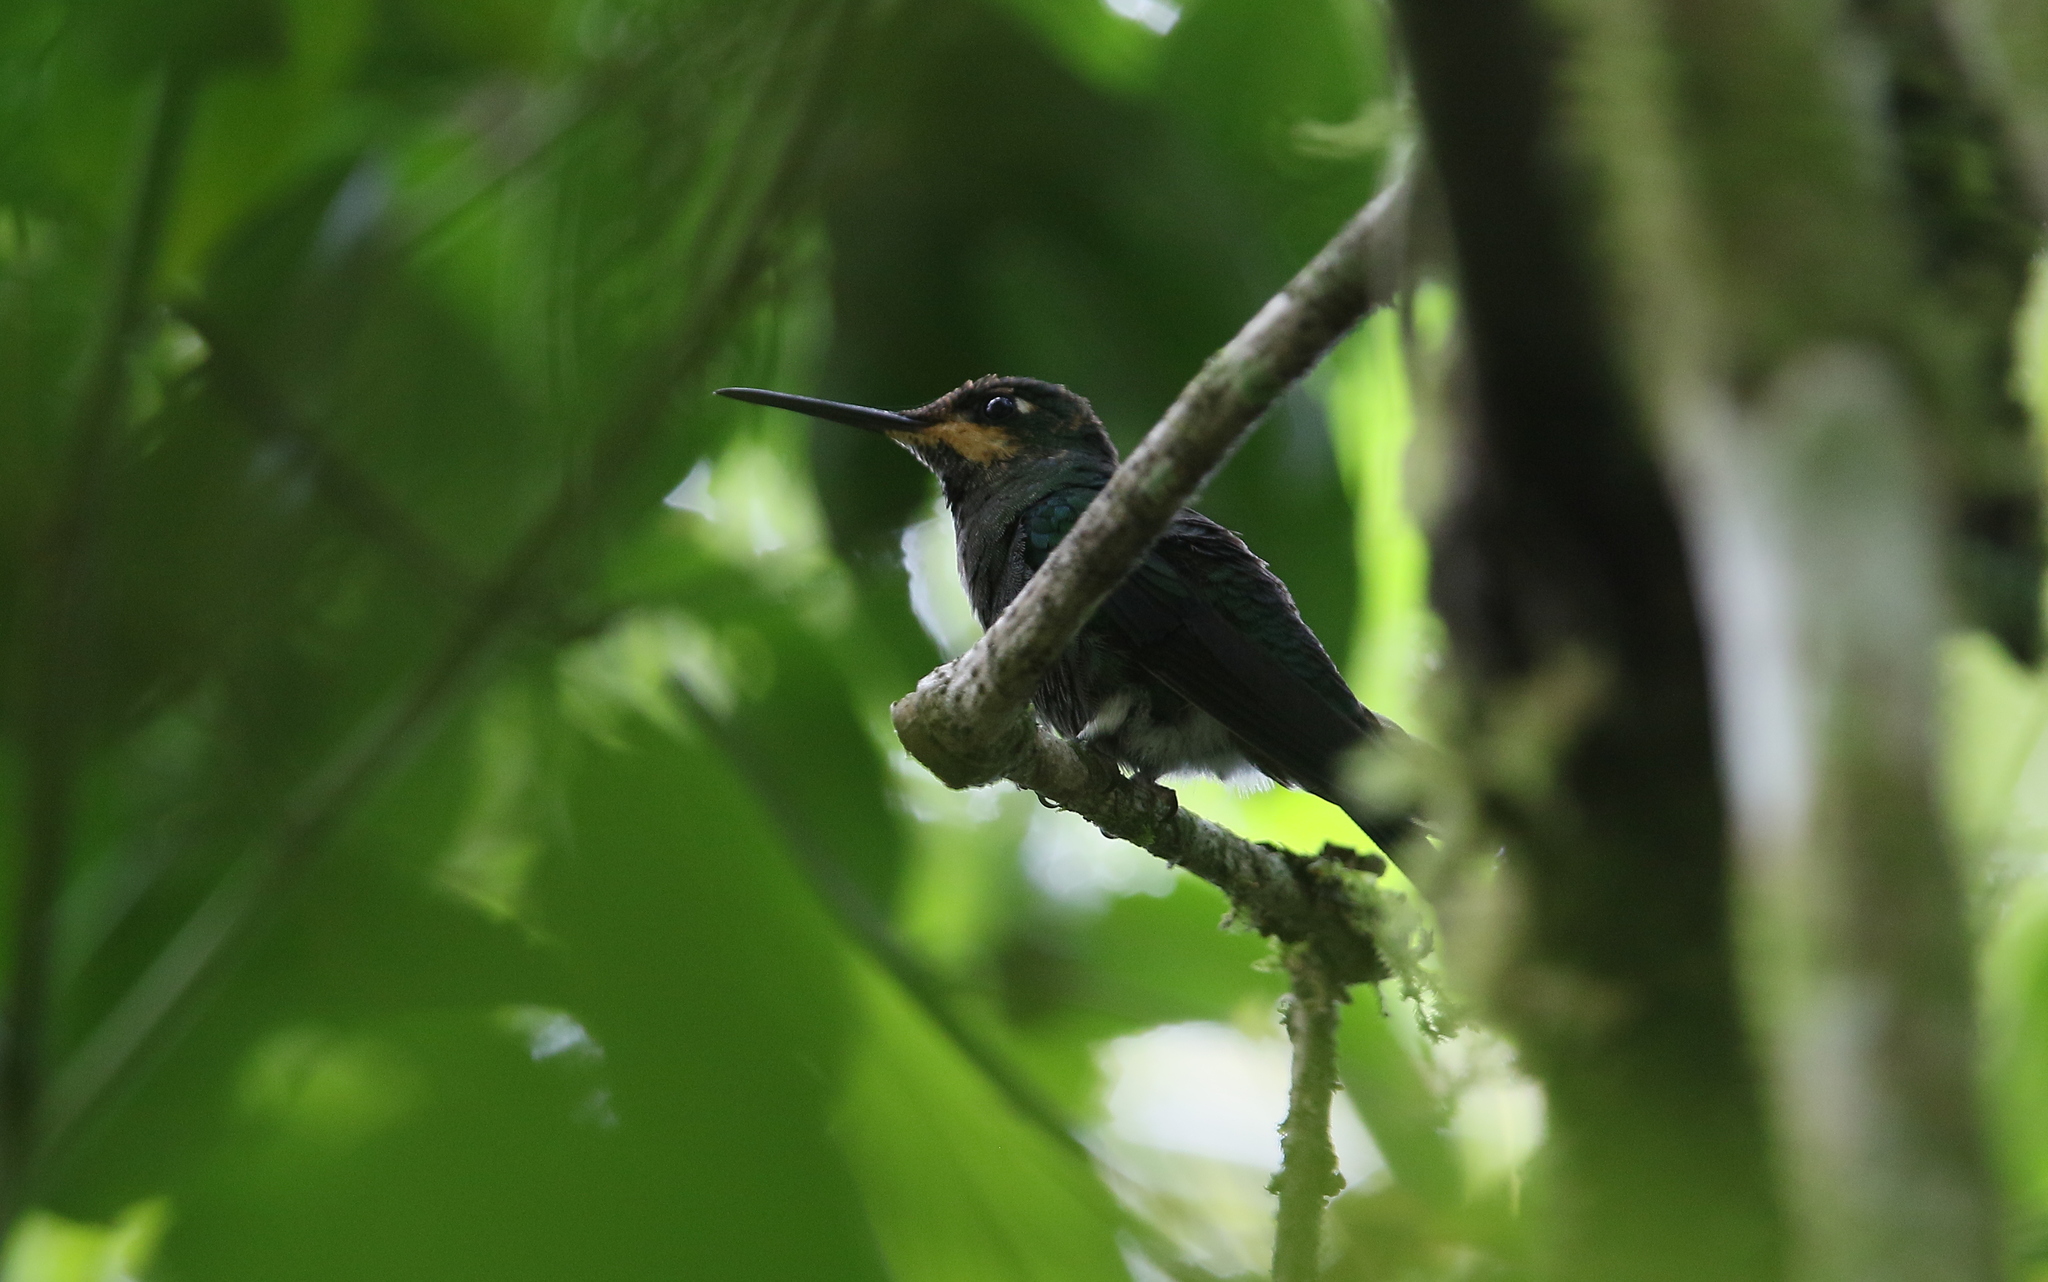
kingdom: Animalia
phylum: Chordata
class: Aves
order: Apodiformes
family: Trochilidae
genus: Heliodoxa
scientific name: Heliodoxa jacula
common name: Green-crowned brilliant
